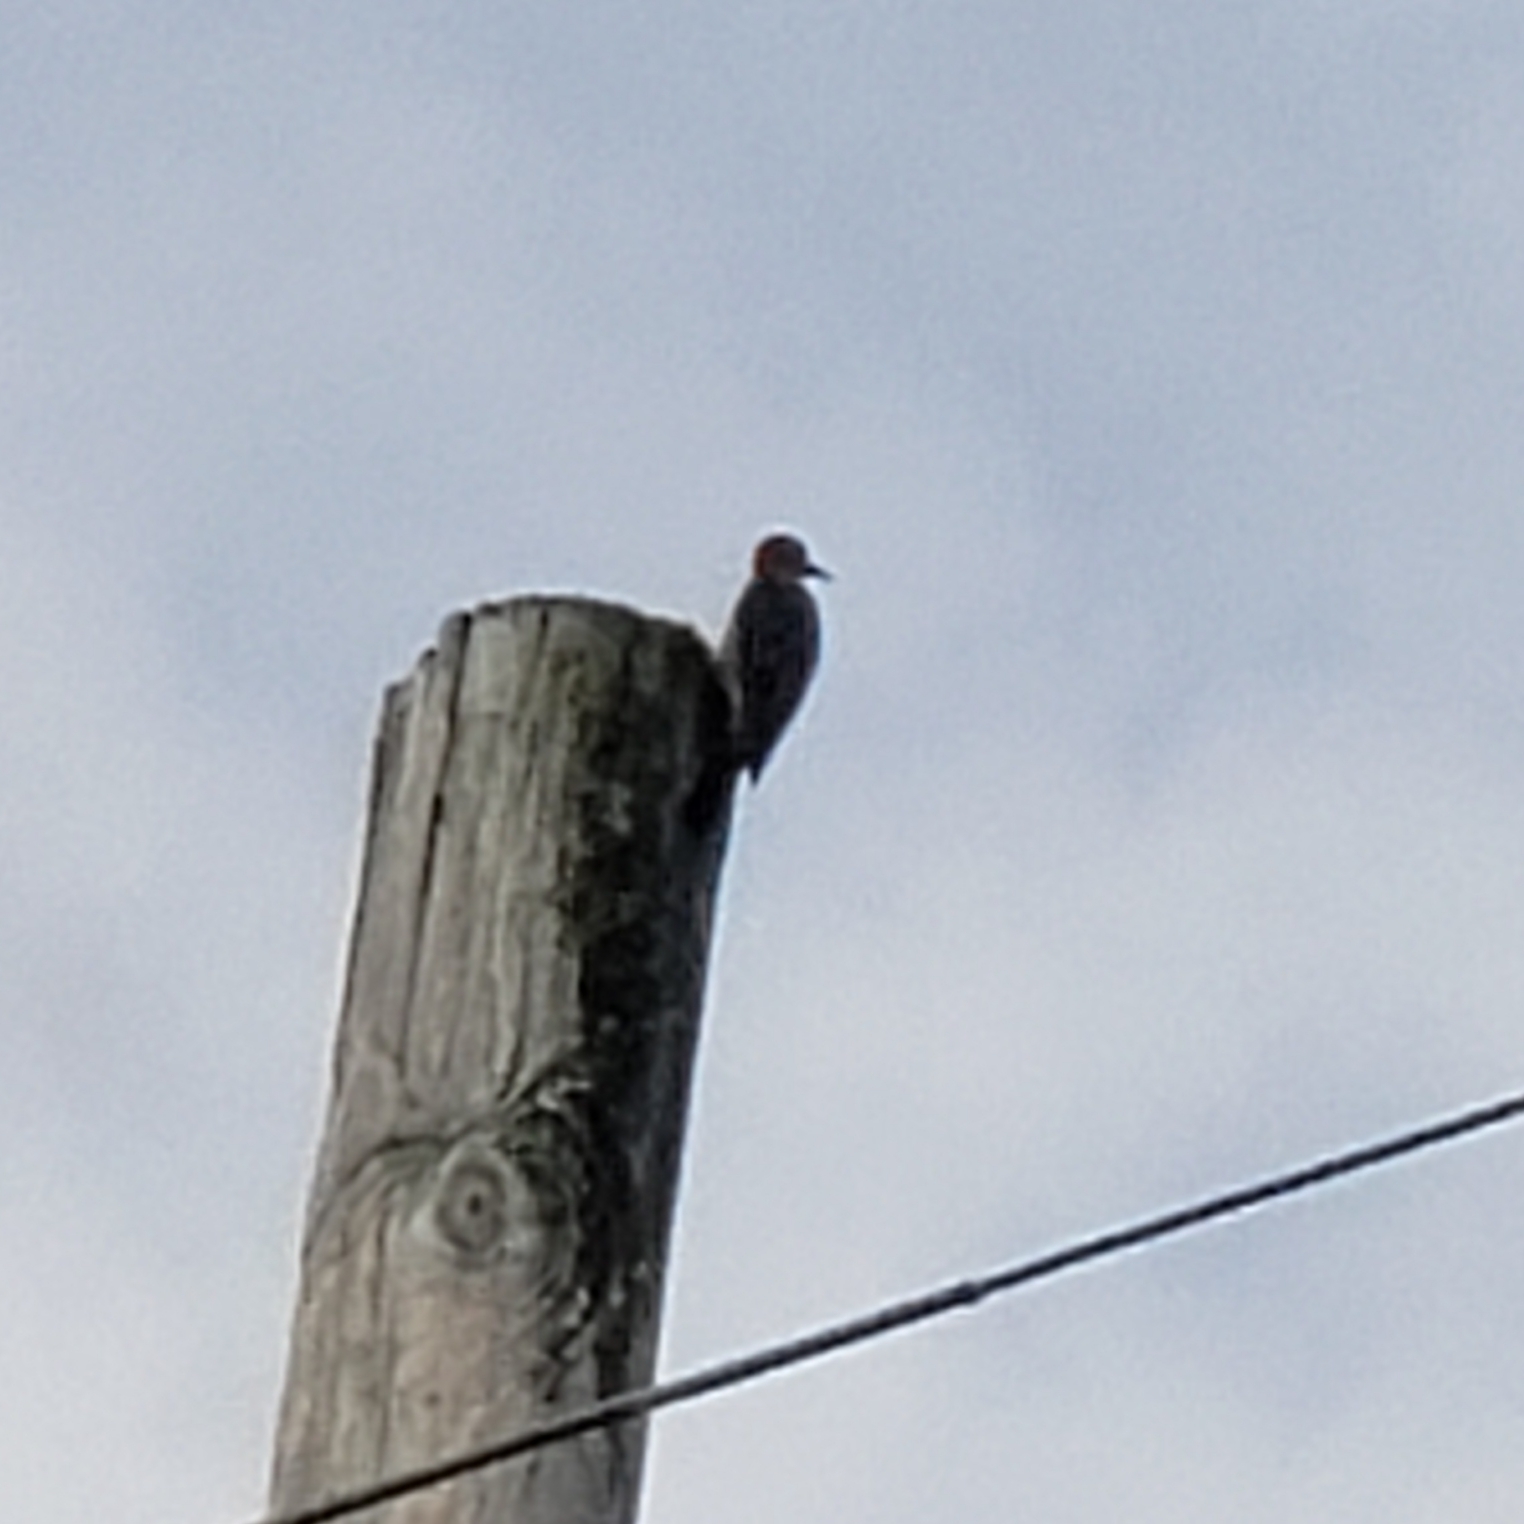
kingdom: Animalia
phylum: Chordata
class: Aves
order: Piciformes
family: Picidae
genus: Melanerpes
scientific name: Melanerpes carolinus
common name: Red-bellied woodpecker
